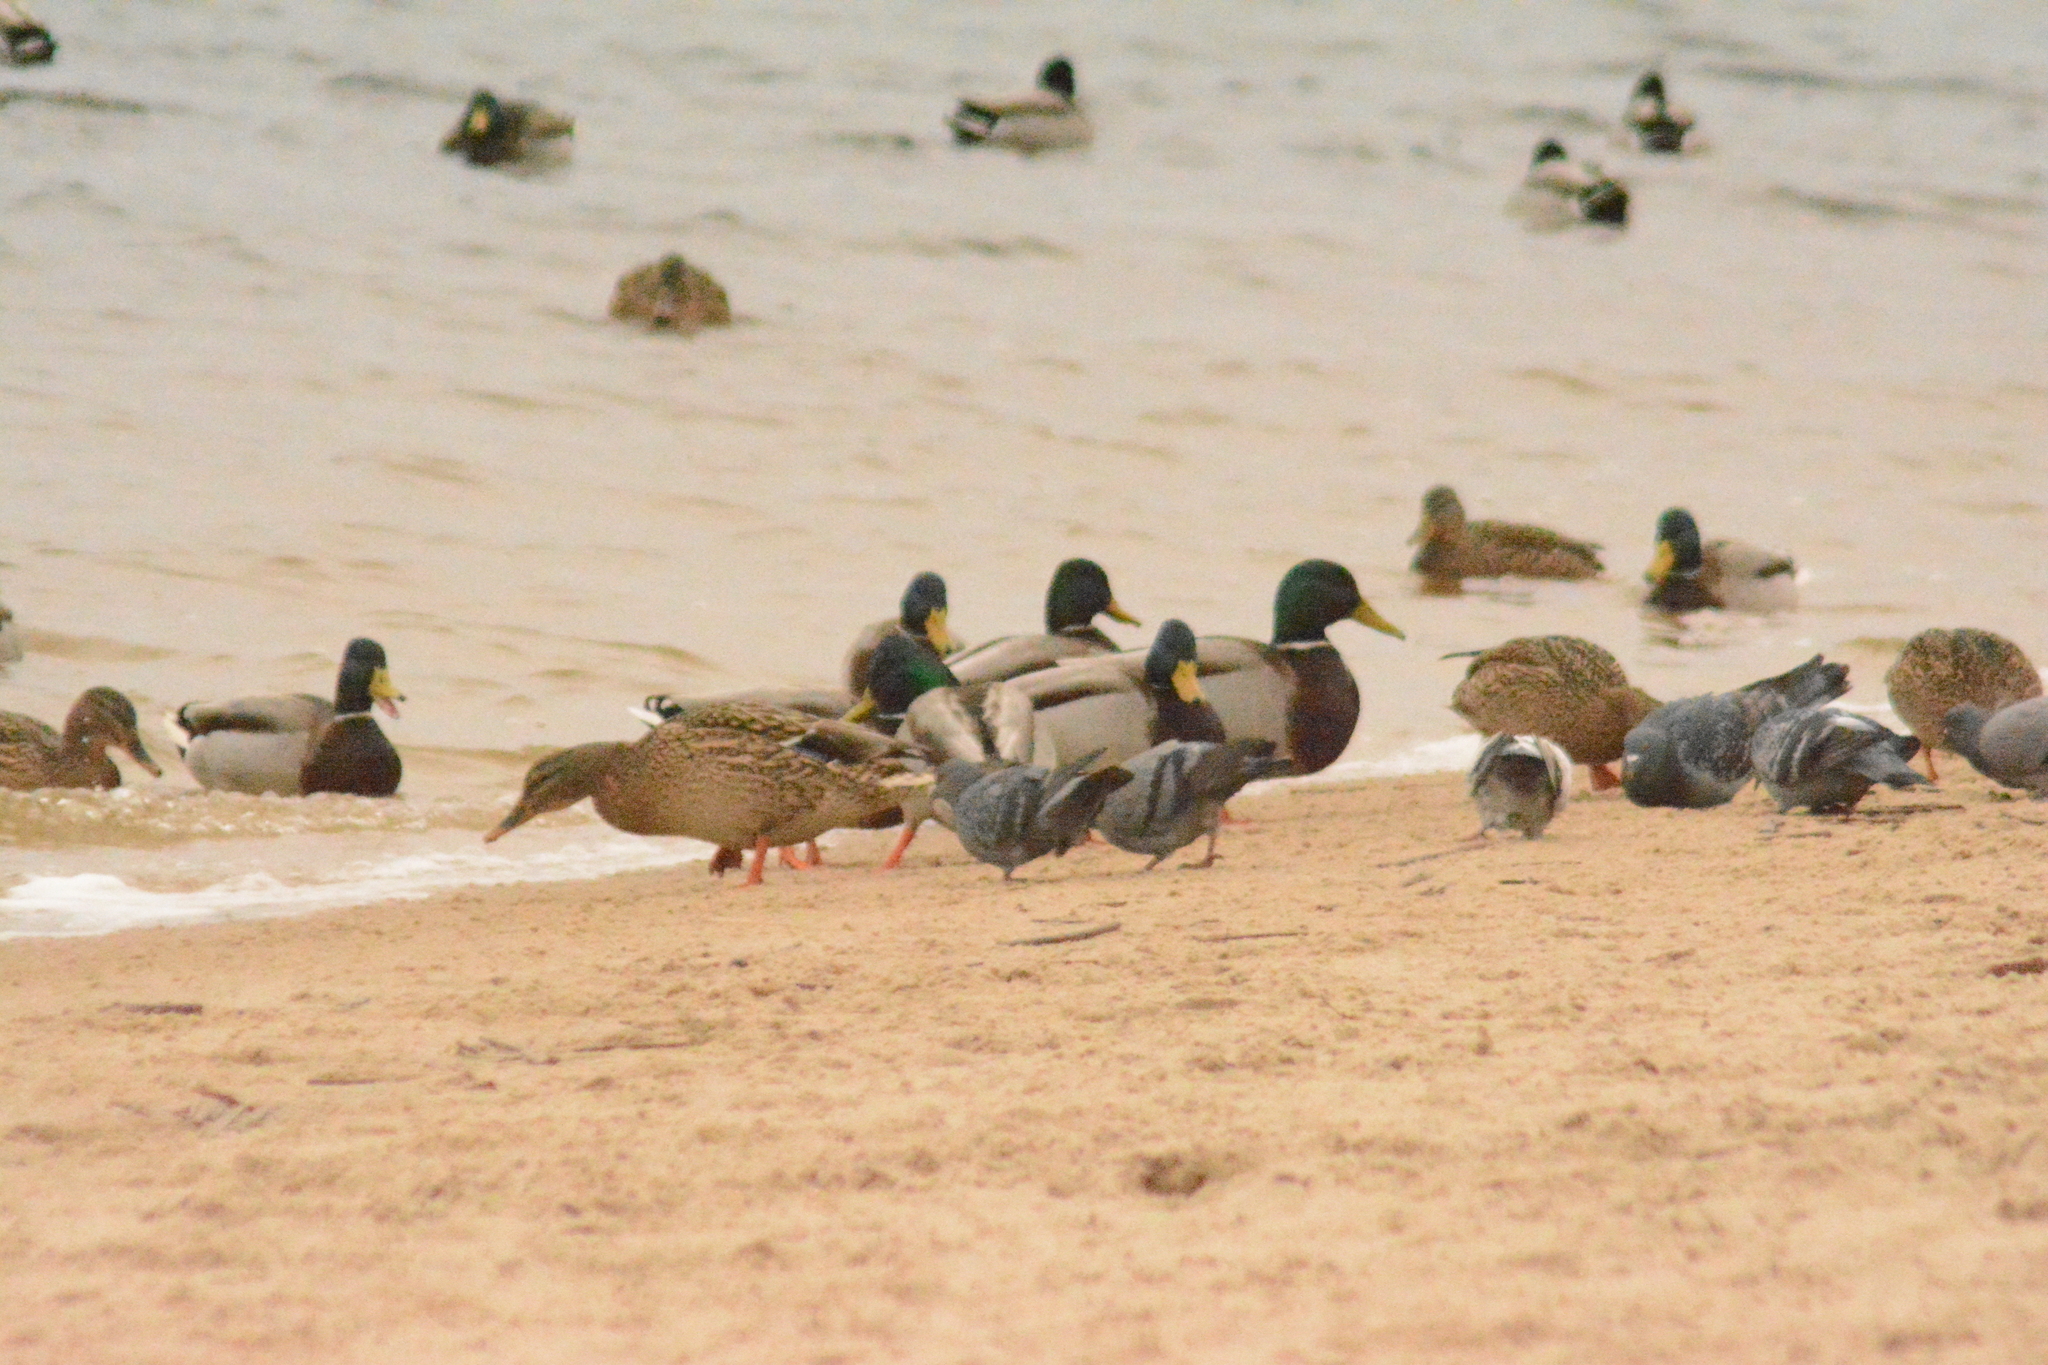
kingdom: Animalia
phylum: Chordata
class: Aves
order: Anseriformes
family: Anatidae
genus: Anas
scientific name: Anas platyrhynchos
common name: Mallard
